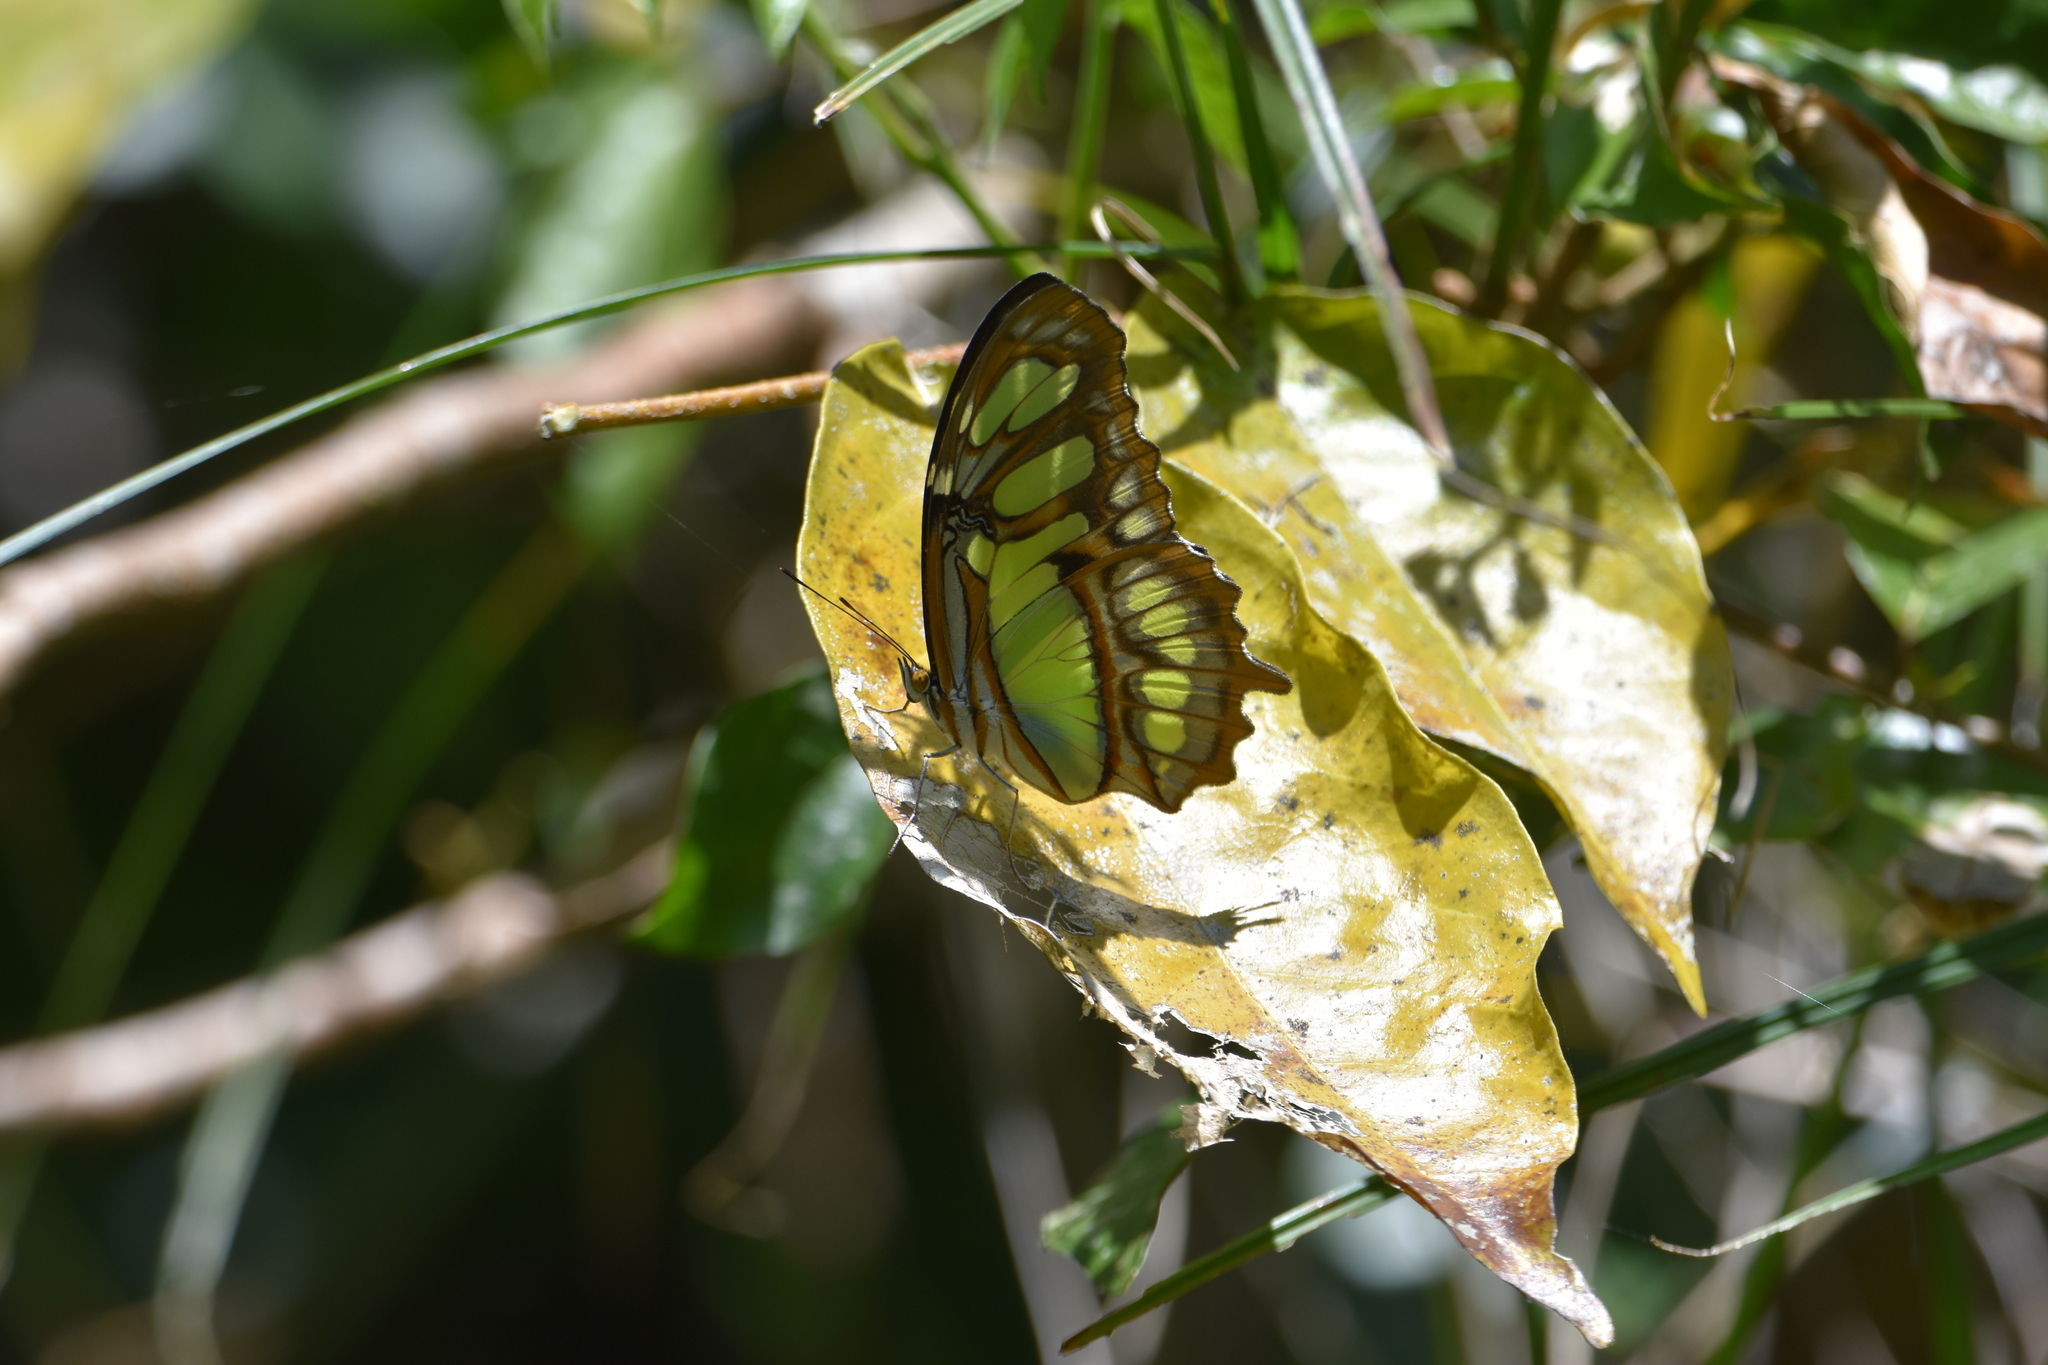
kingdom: Animalia
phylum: Arthropoda
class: Insecta
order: Lepidoptera
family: Nymphalidae
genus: Siproeta
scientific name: Siproeta stelenes
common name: Malachite
